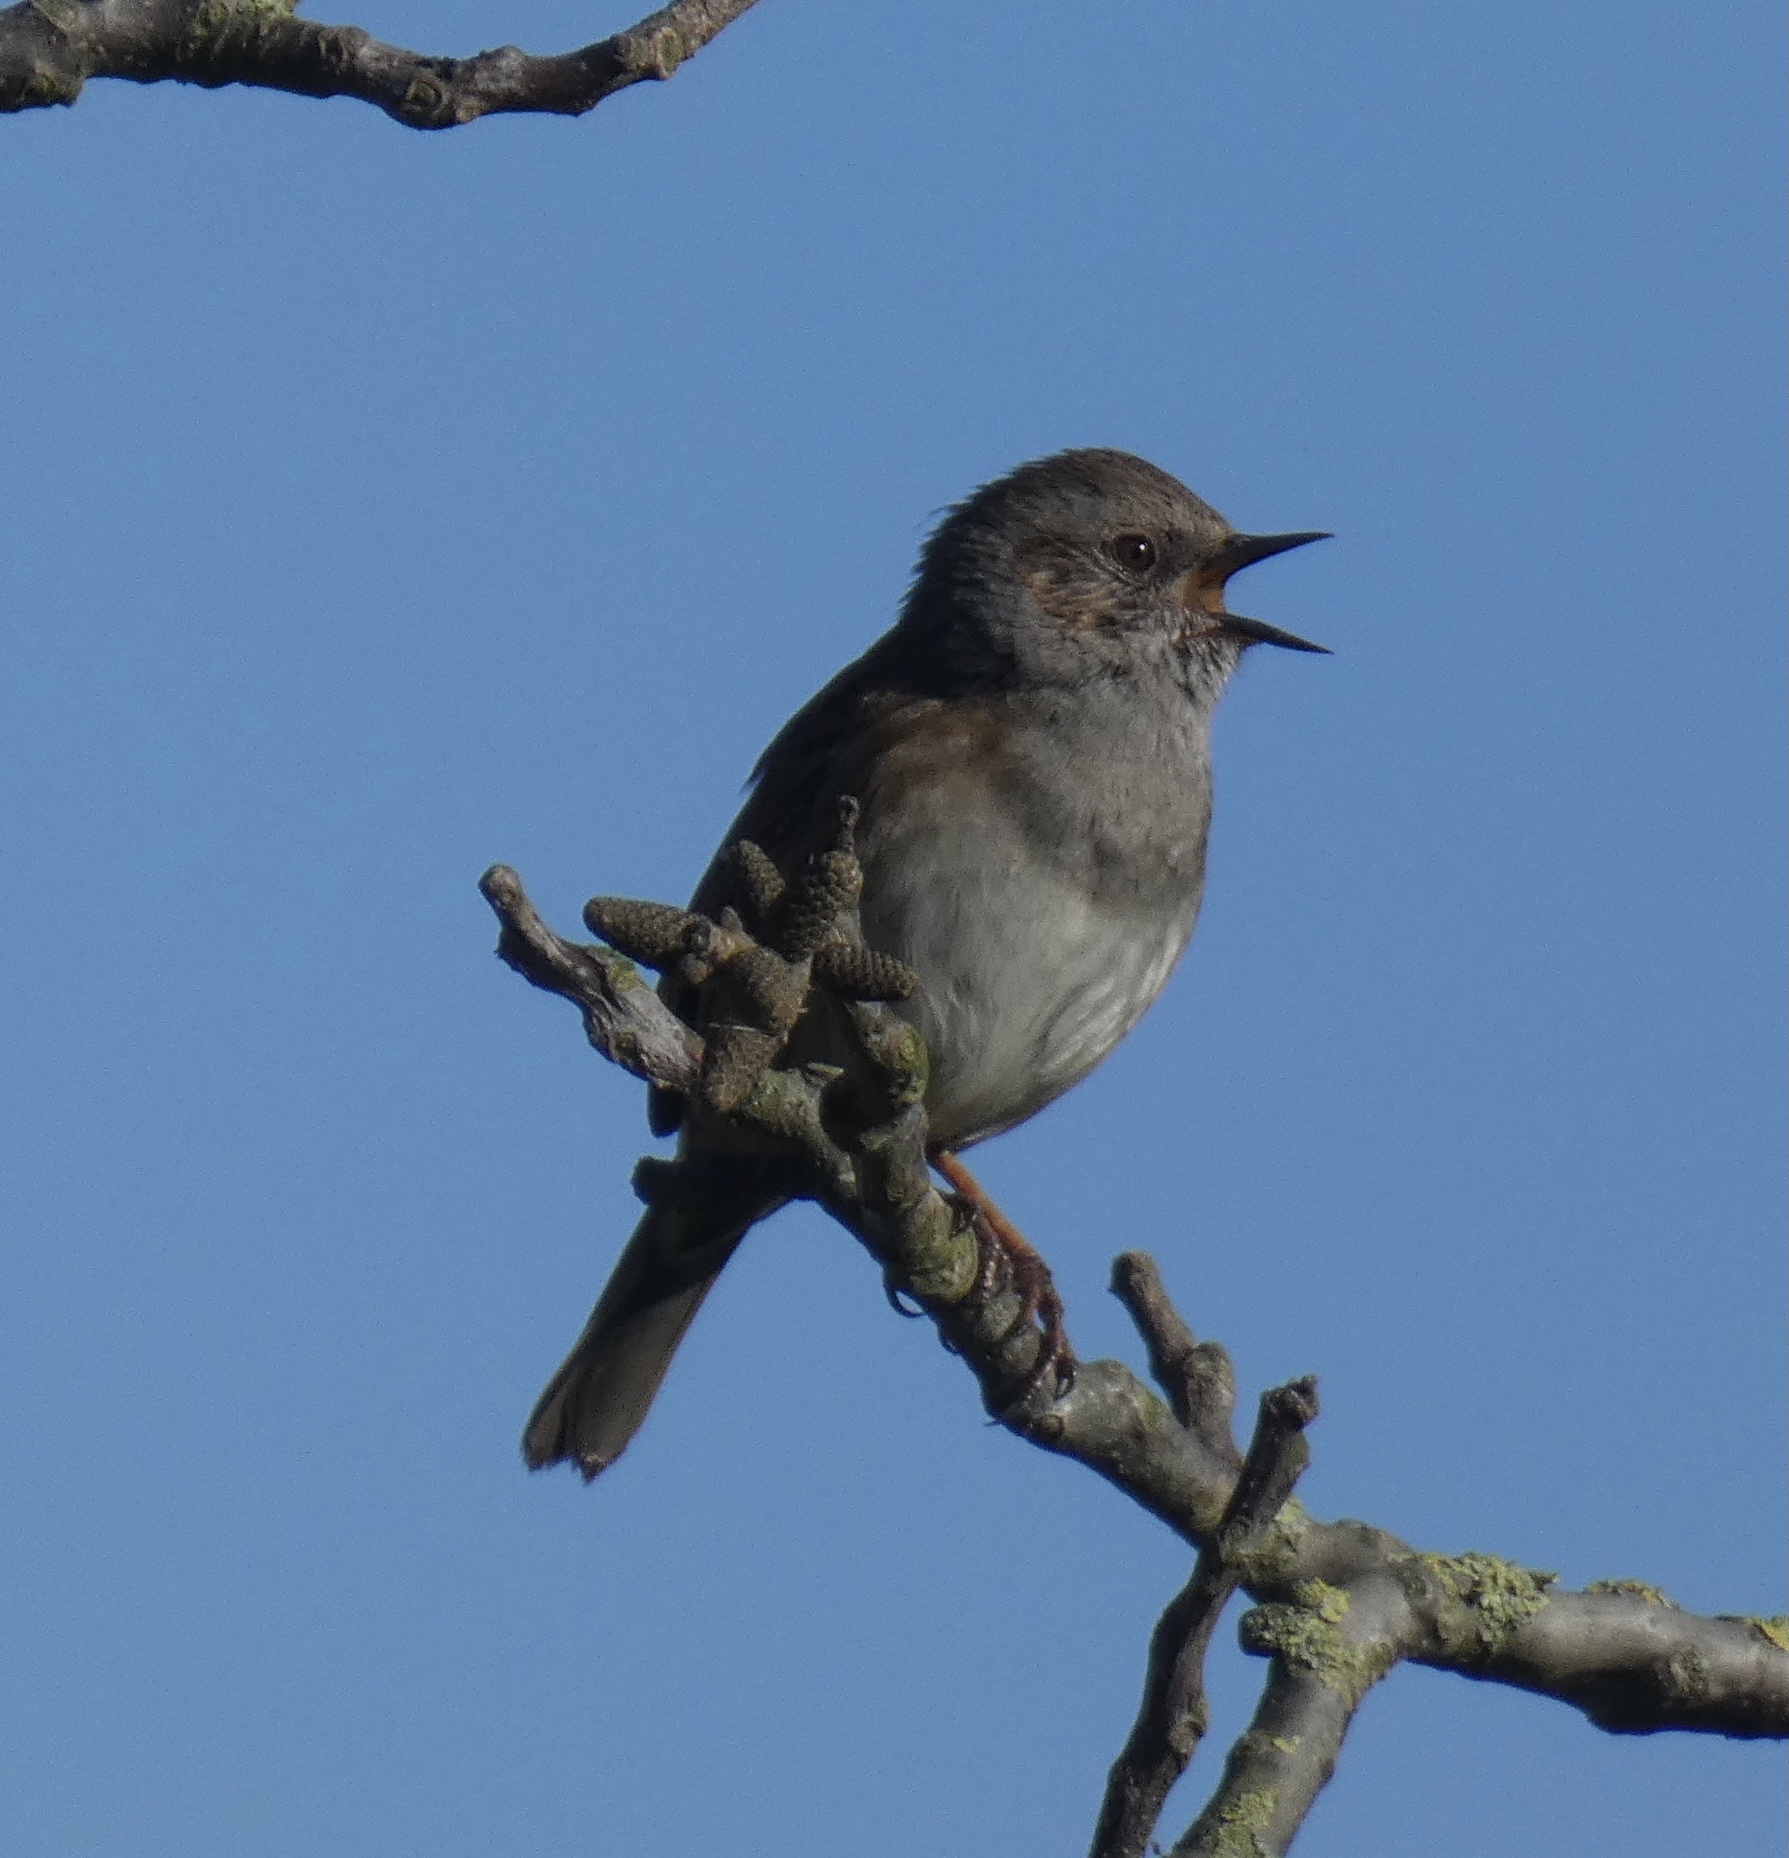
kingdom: Animalia
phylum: Chordata
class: Aves
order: Passeriformes
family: Prunellidae
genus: Prunella
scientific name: Prunella modularis
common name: Dunnock
